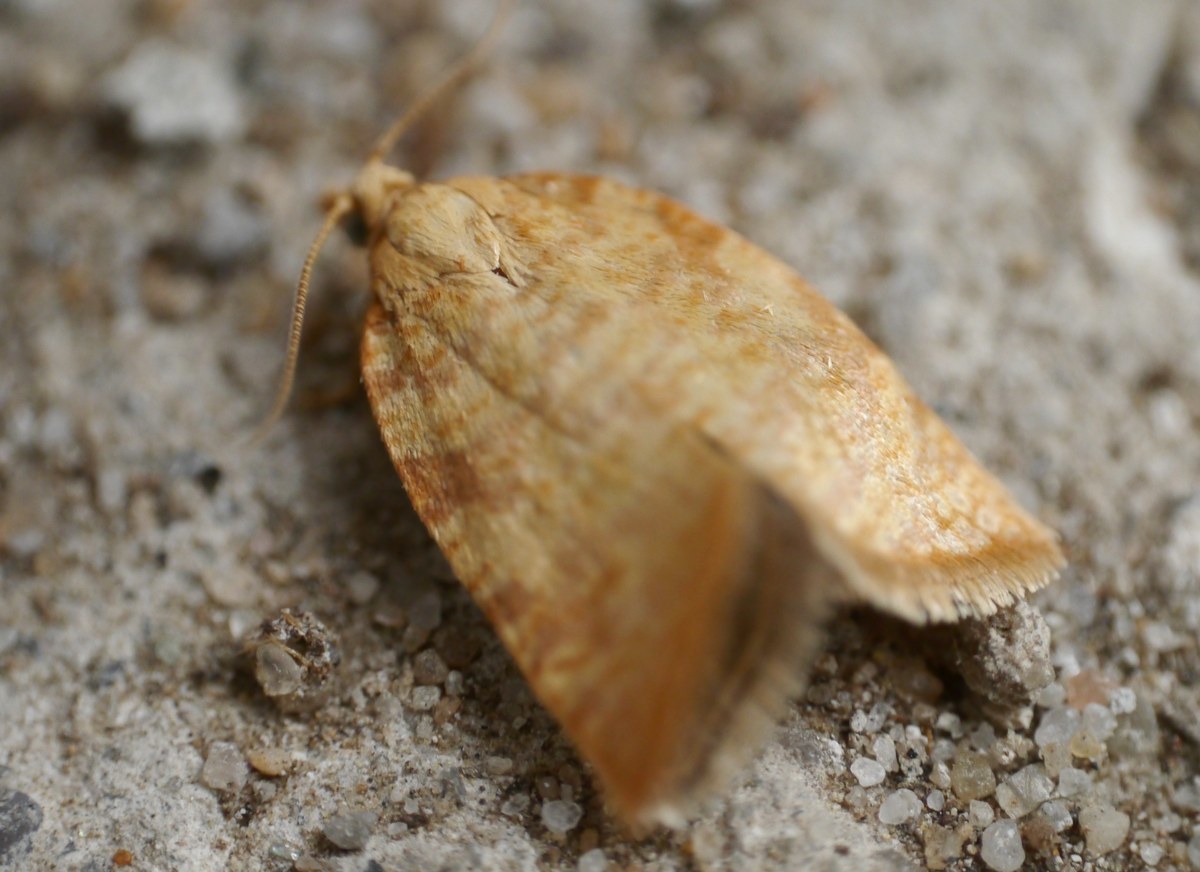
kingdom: Animalia
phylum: Arthropoda
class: Insecta
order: Lepidoptera
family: Tortricidae
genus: Aleimma
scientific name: Aleimma loeflingiana
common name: Yellow oak button
